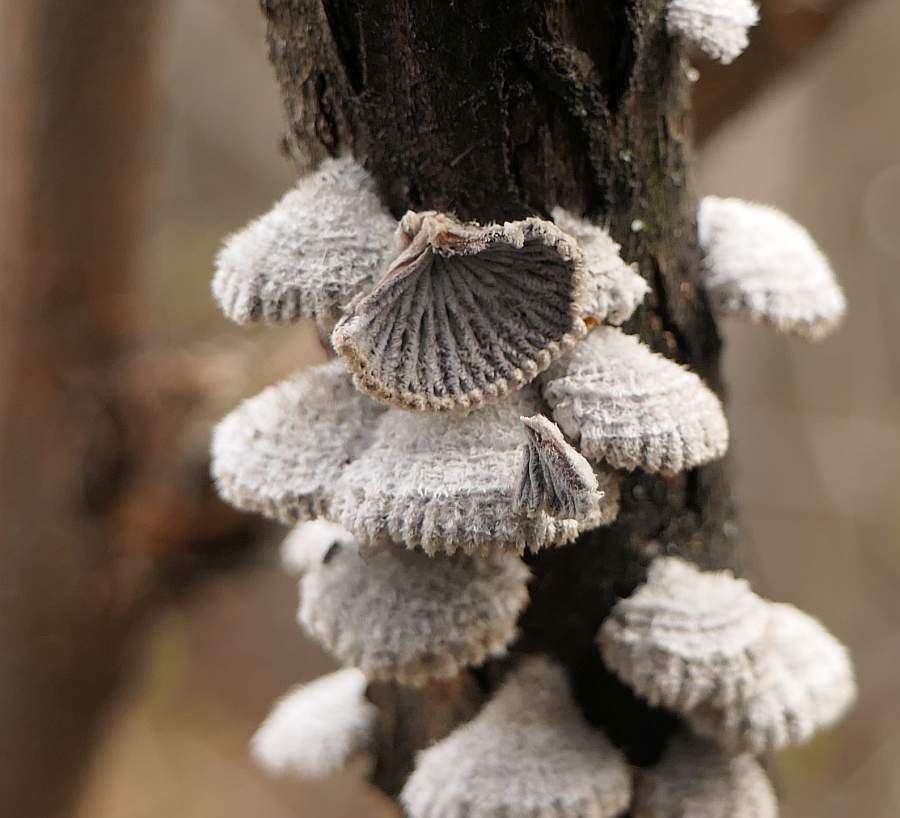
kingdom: Fungi
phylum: Basidiomycota
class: Agaricomycetes
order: Agaricales
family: Schizophyllaceae
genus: Schizophyllum
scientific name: Schizophyllum commune
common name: Common porecrust
